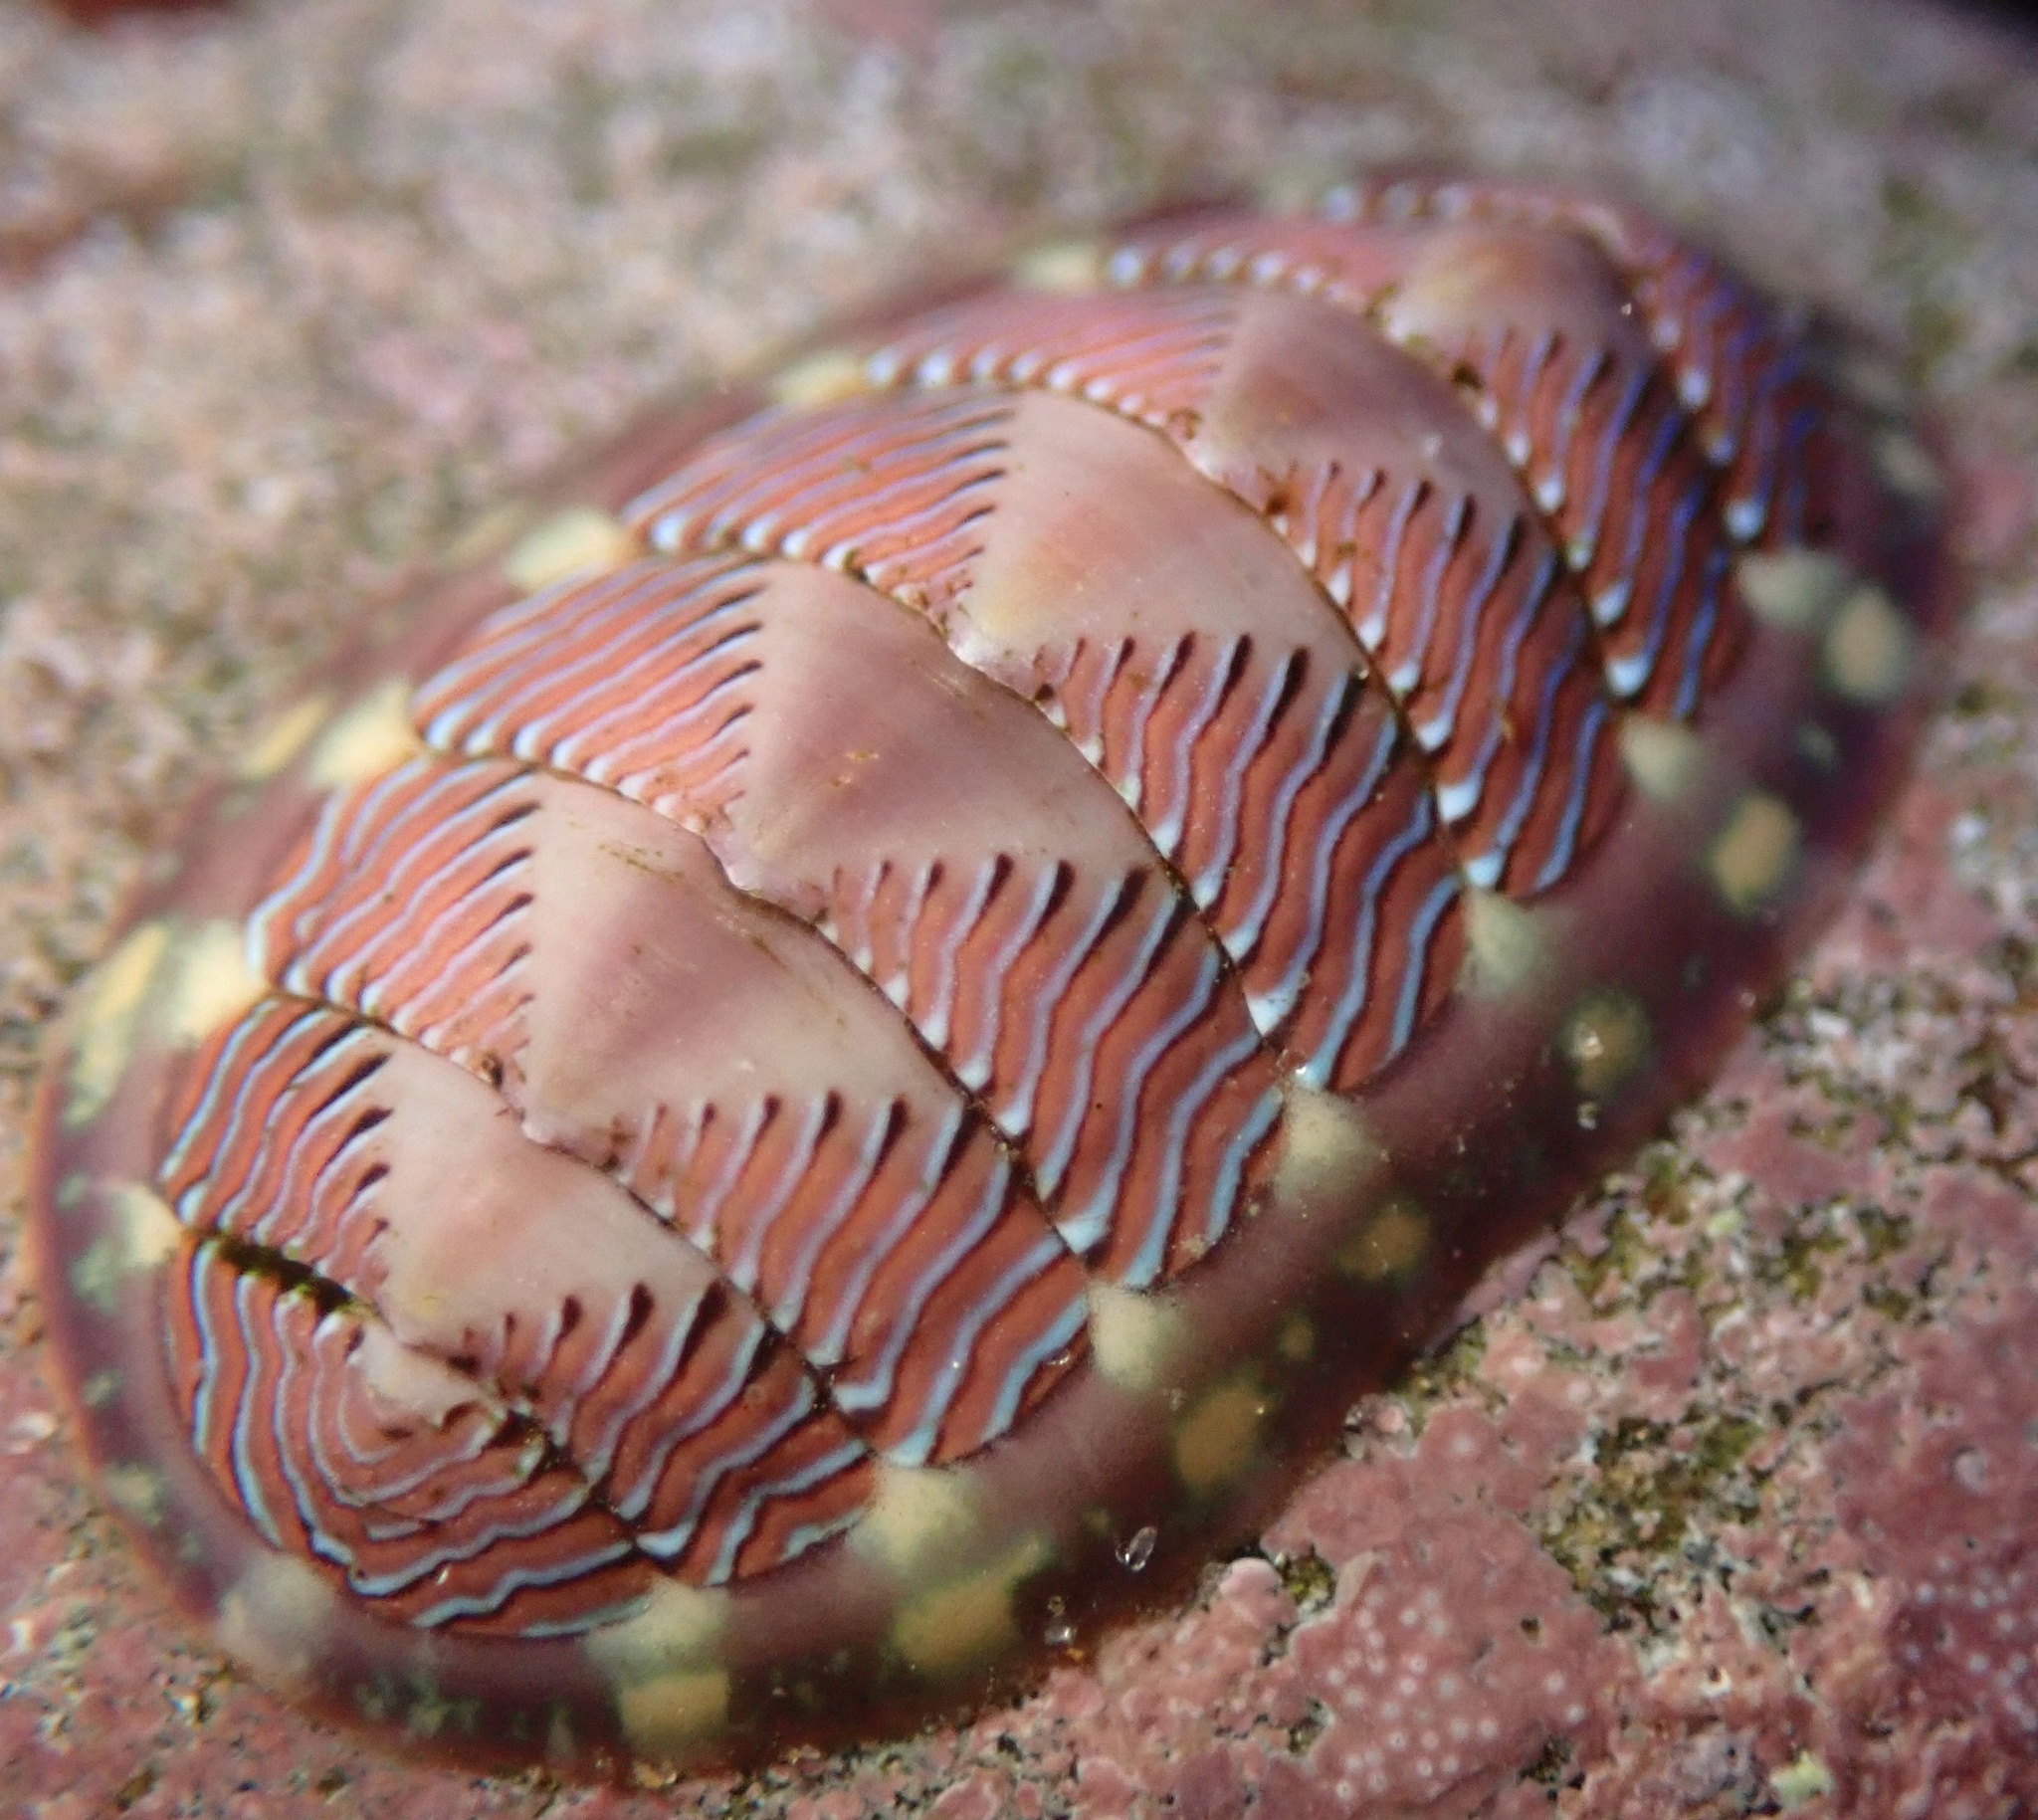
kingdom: Animalia
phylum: Mollusca
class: Polyplacophora
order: Chitonida
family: Tonicellidae
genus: Tonicella
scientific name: Tonicella lineata
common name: Lined chiton
